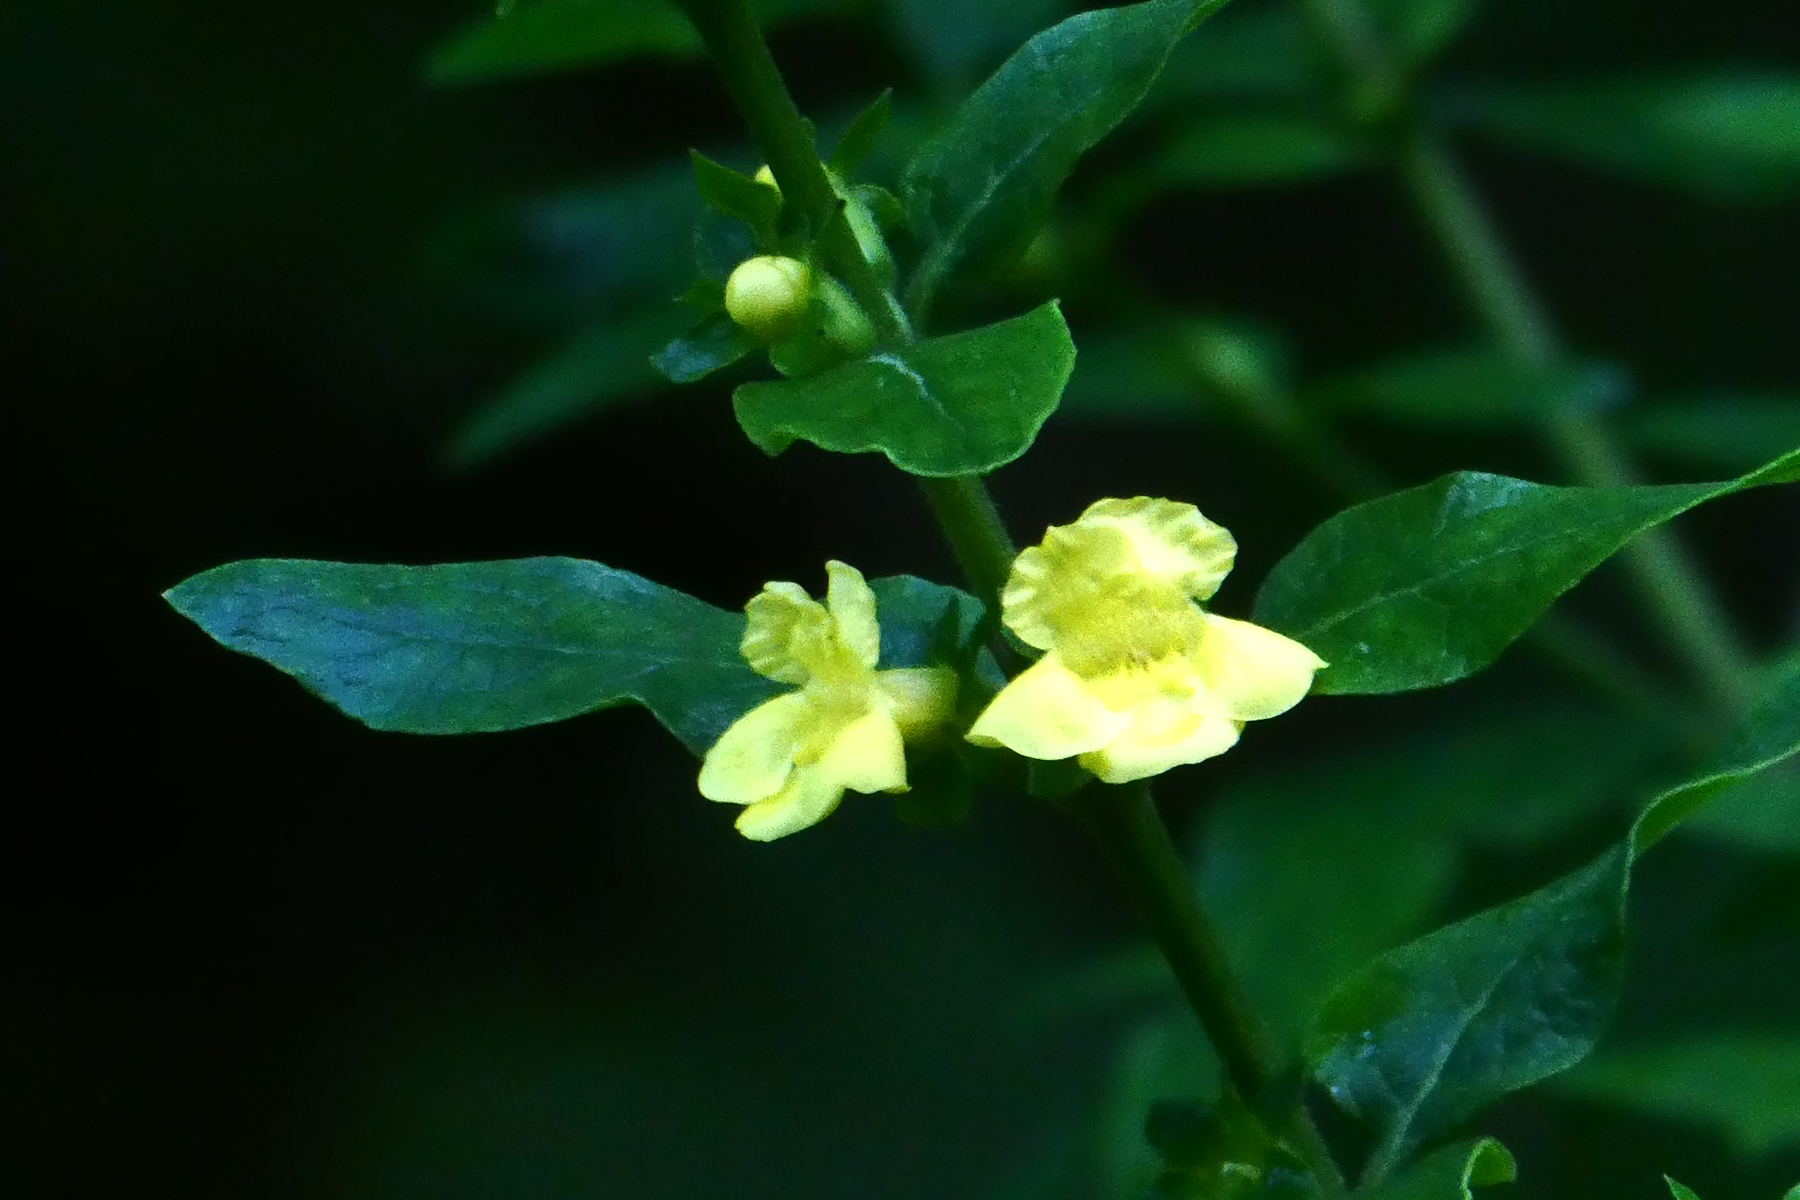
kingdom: Plantae
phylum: Tracheophyta
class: Magnoliopsida
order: Lamiales
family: Orobanchaceae
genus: Dasistoma
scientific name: Dasistoma macrophyllum
